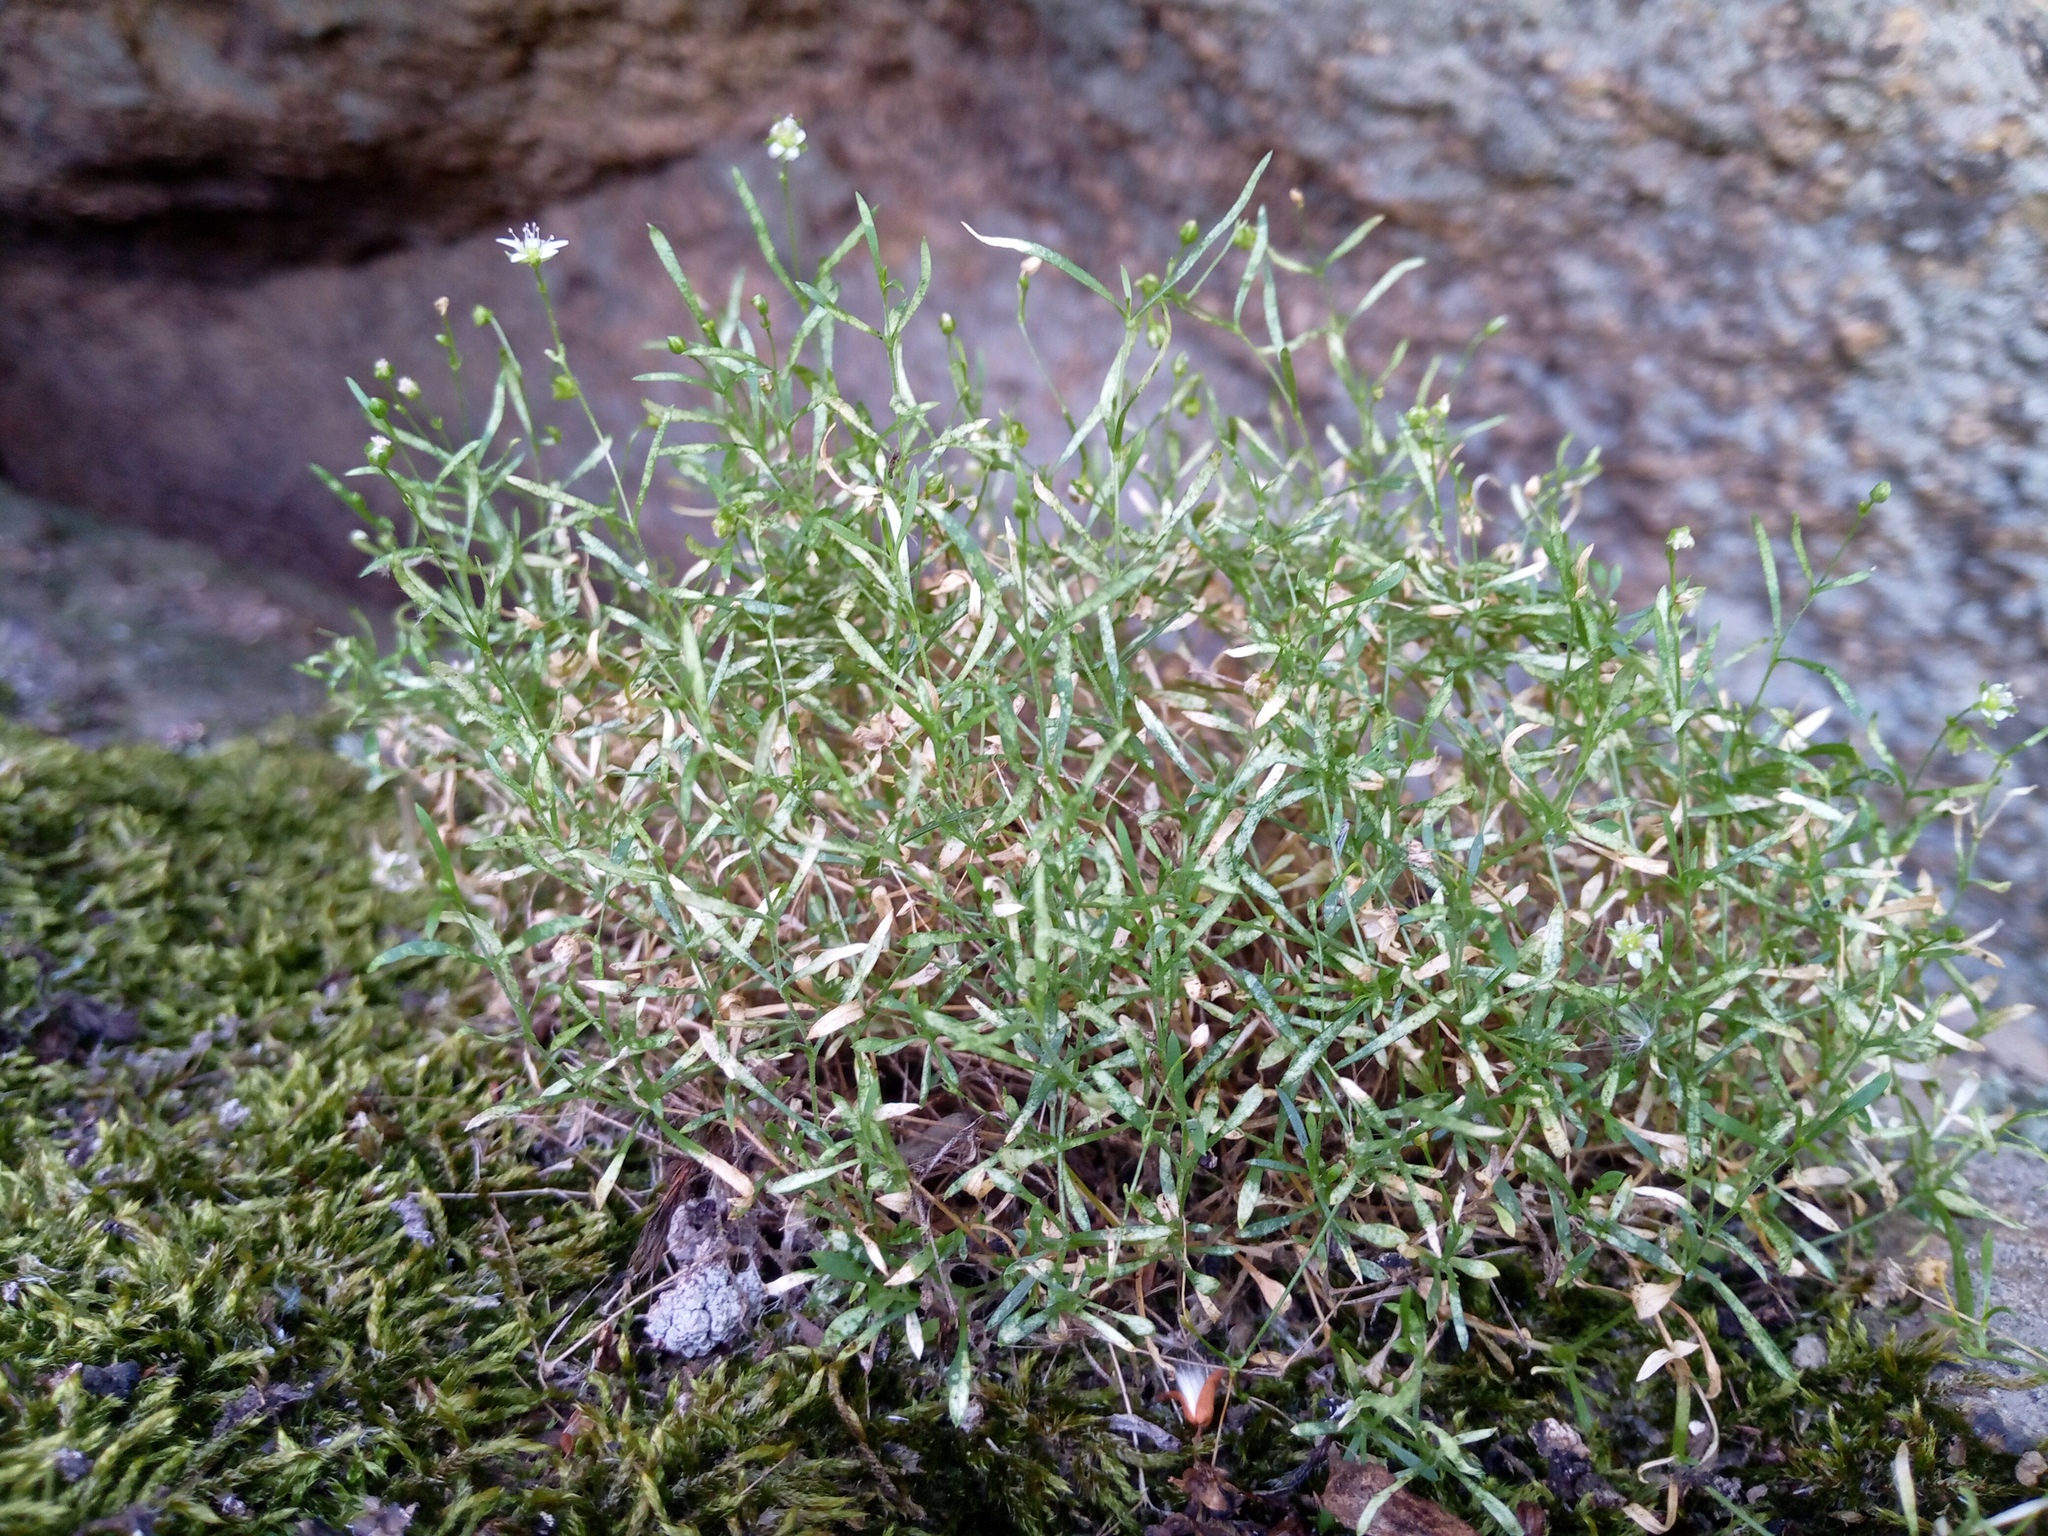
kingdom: Plantae
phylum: Tracheophyta
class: Magnoliopsida
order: Caryophyllales
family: Caryophyllaceae
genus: Moehringia
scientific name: Moehringia hypanica
